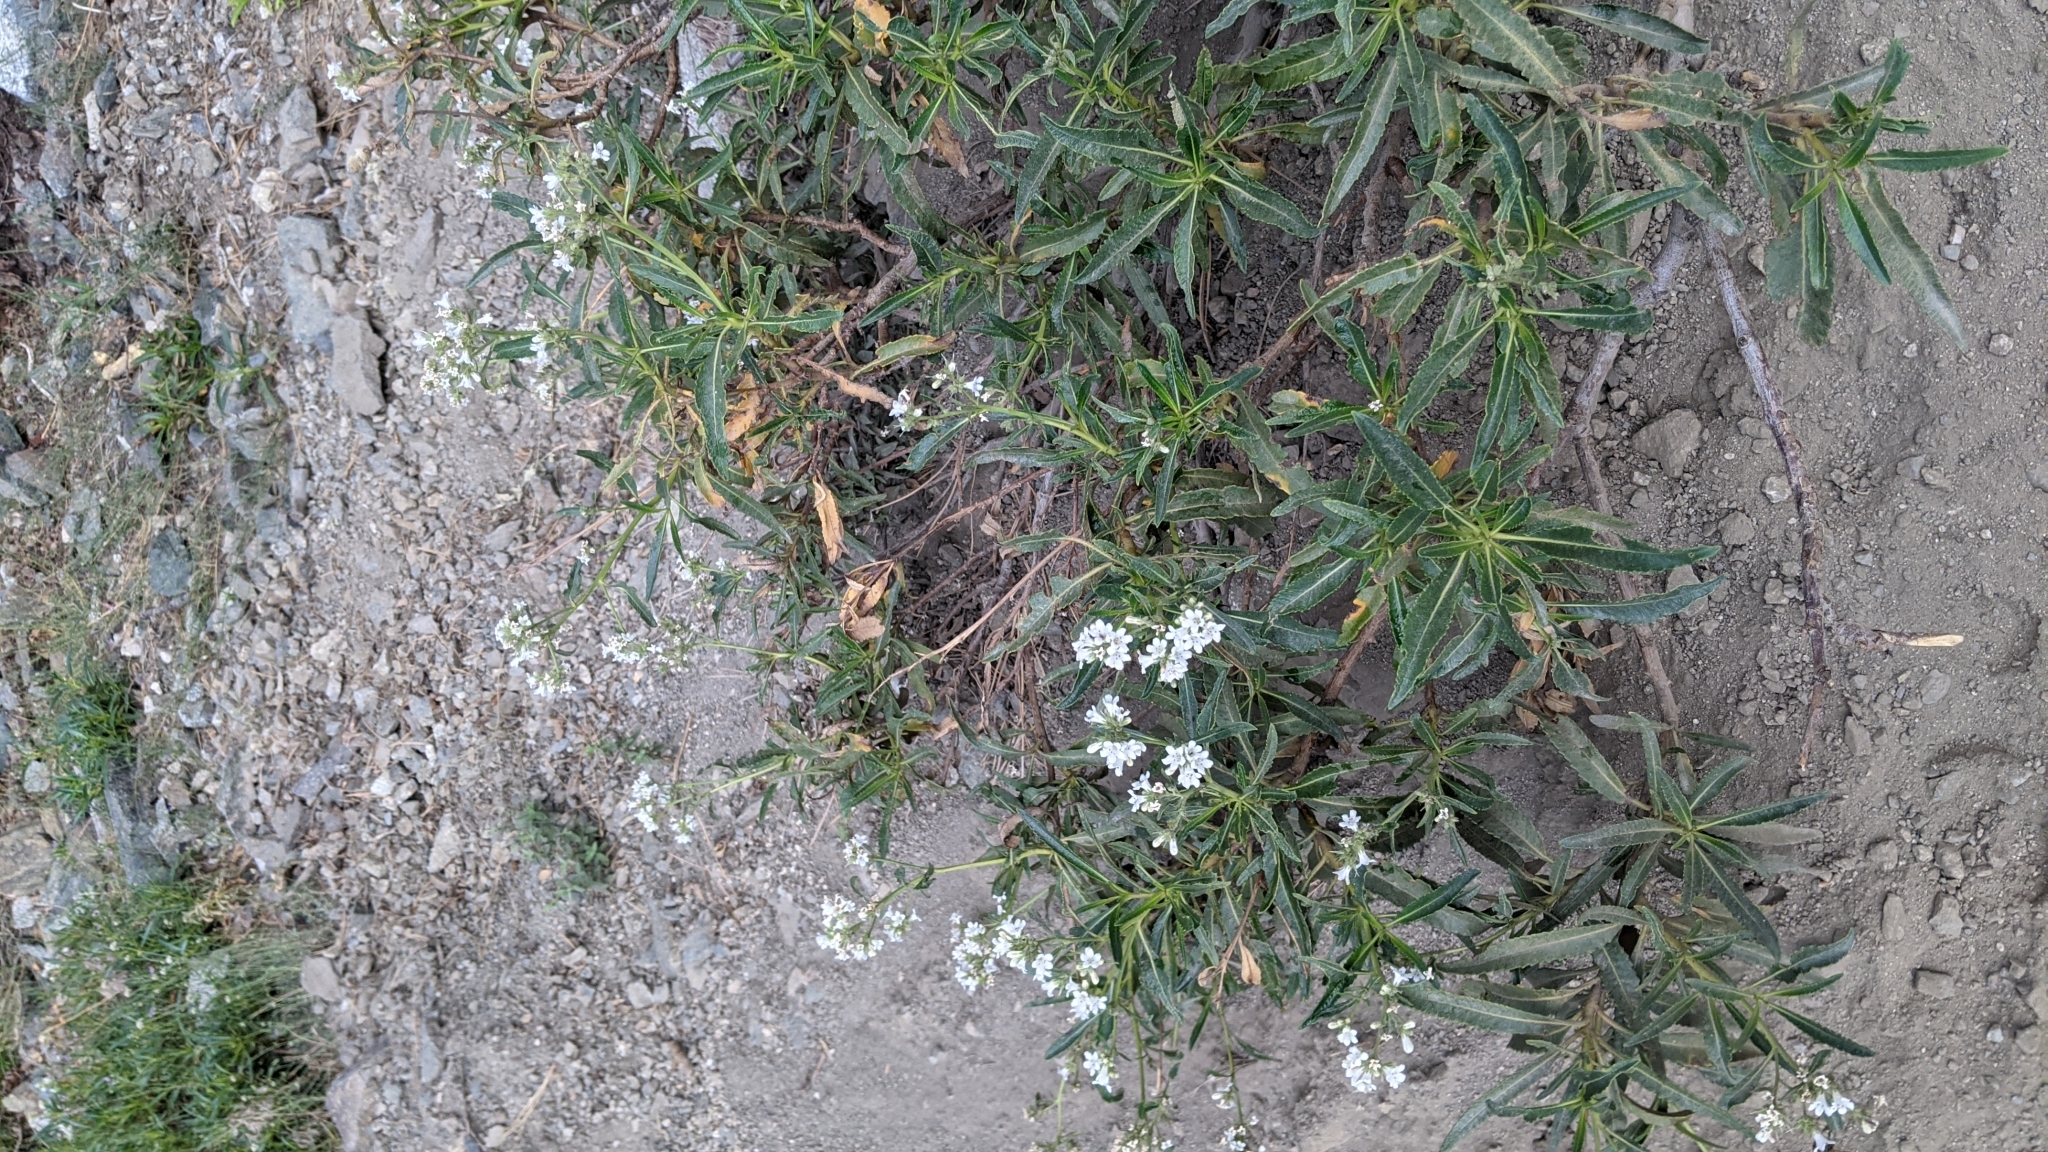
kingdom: Plantae
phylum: Tracheophyta
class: Magnoliopsida
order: Boraginales
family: Namaceae
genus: Eriodictyon
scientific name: Eriodictyon trichocalyx
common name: Hairy yerba-santa
